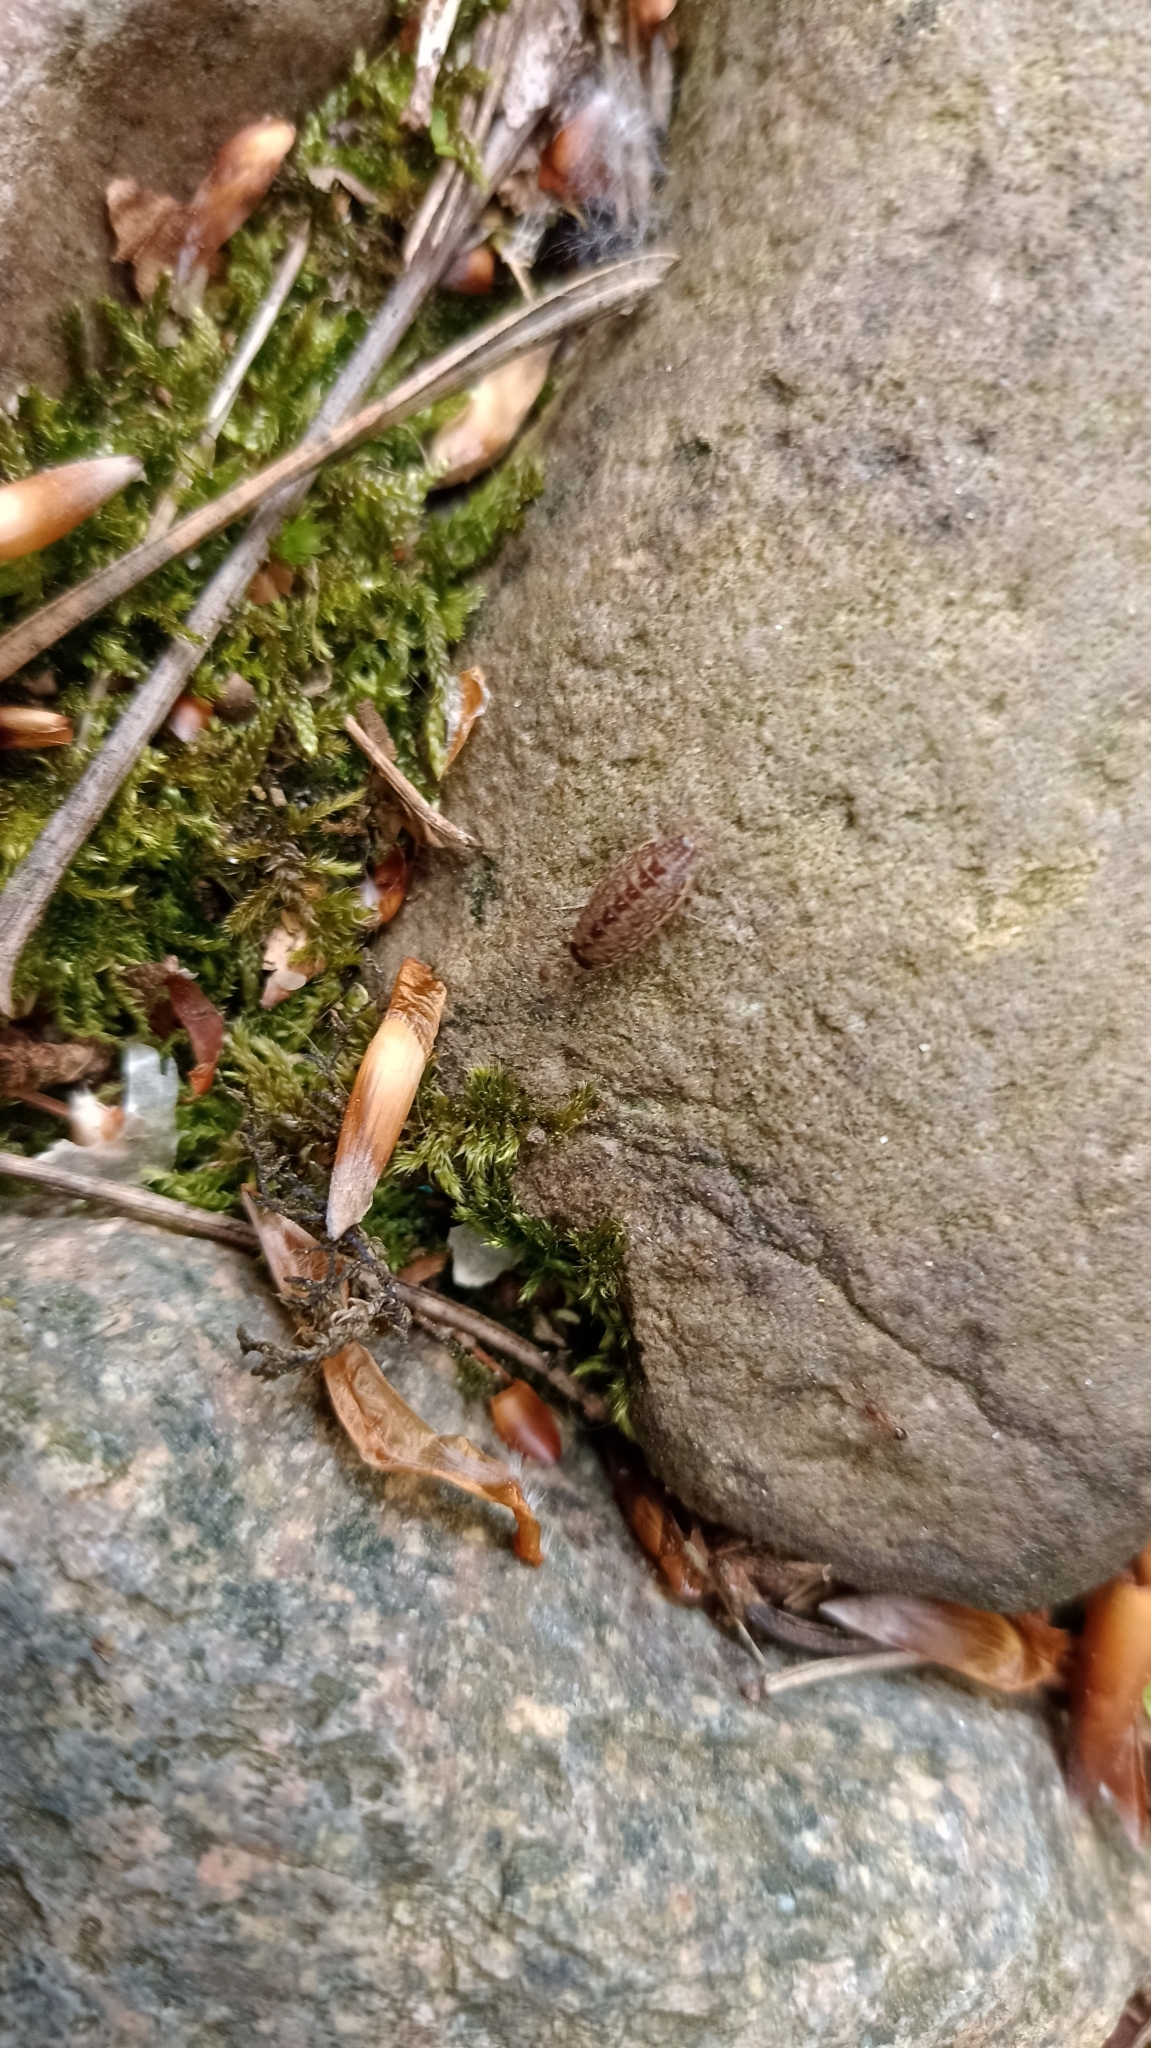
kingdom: Animalia
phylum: Arthropoda
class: Malacostraca
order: Isopoda
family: Philosciidae
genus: Philoscia
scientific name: Philoscia muscorum
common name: Common striped woodlouse
